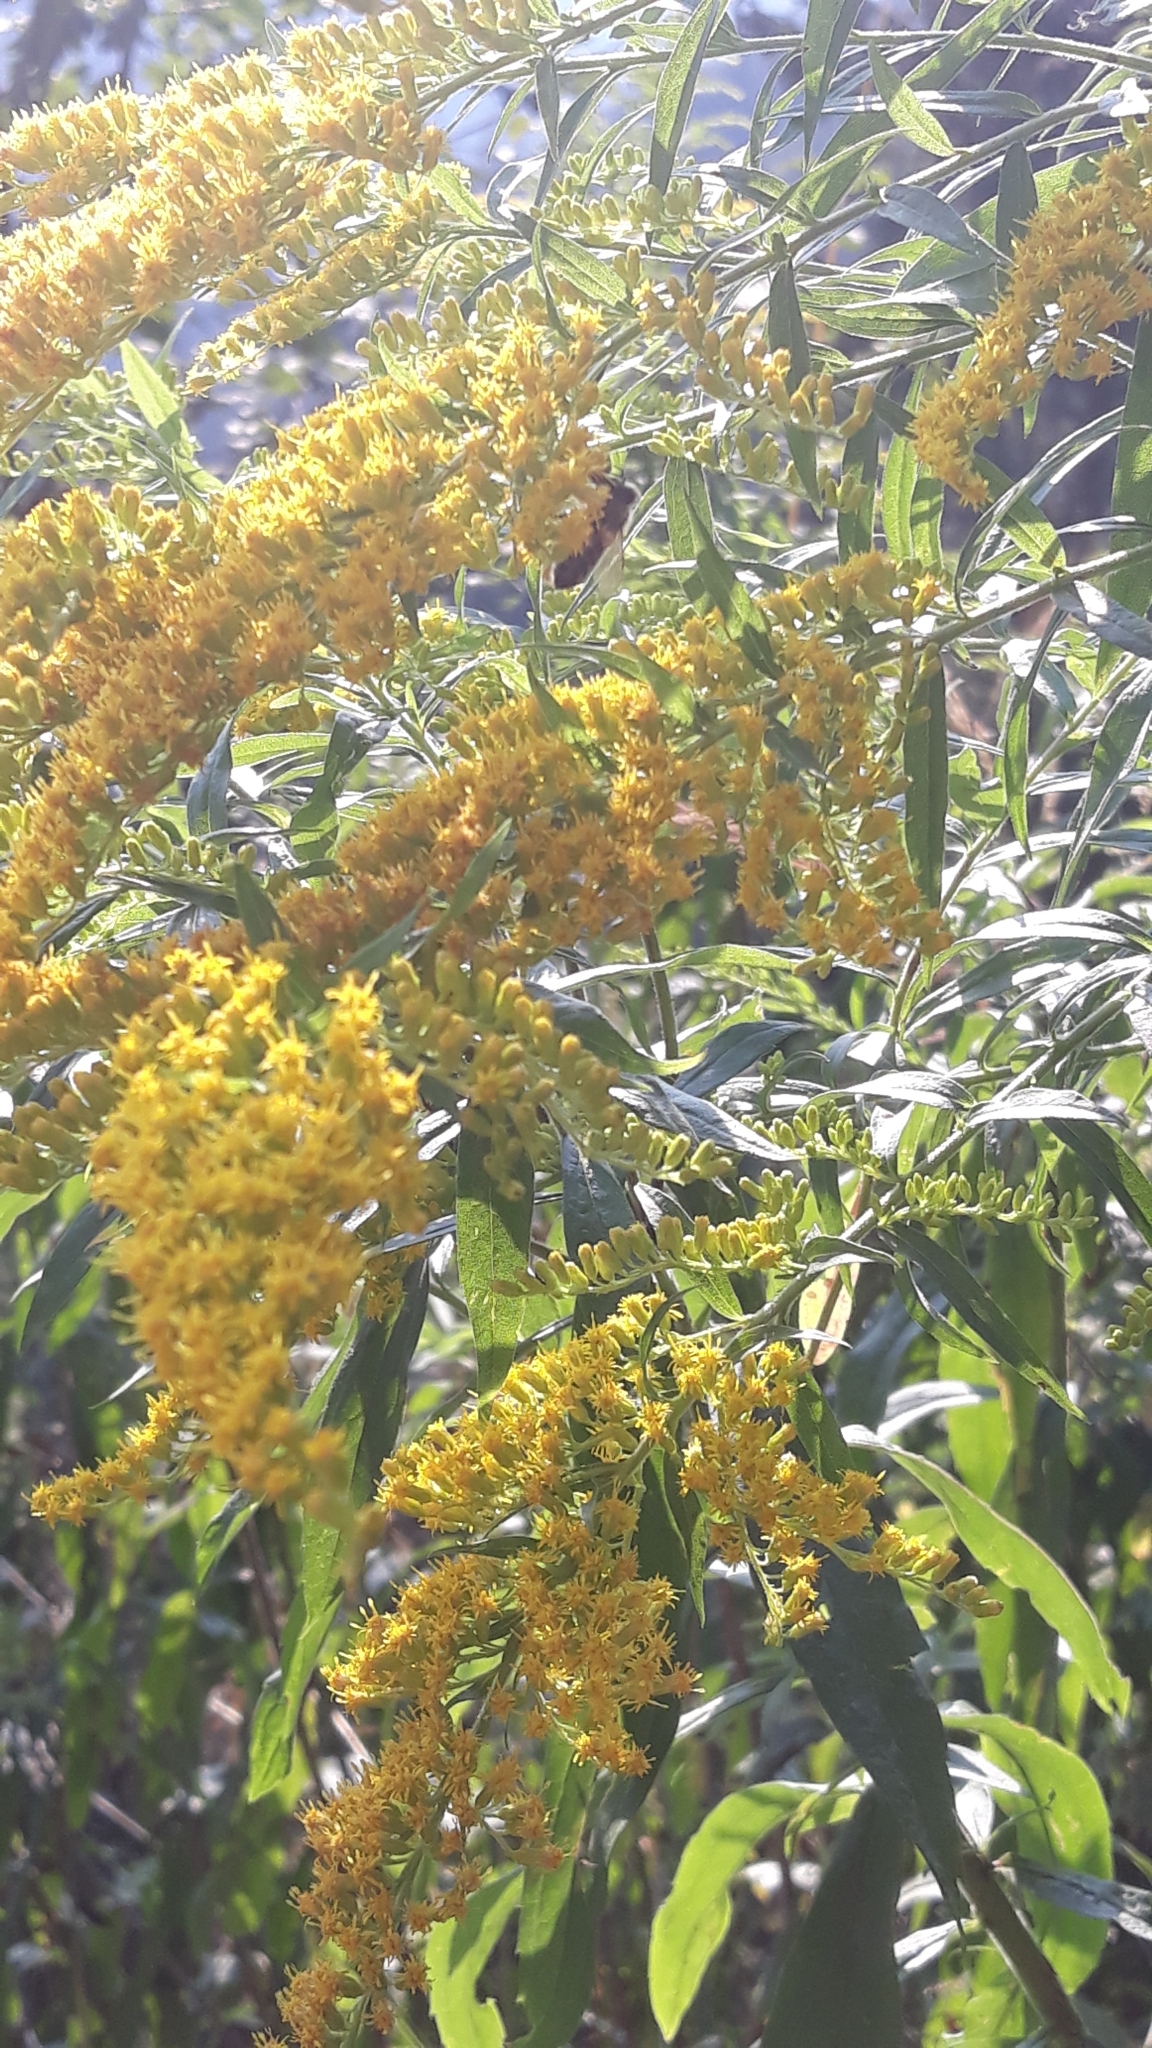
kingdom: Plantae
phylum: Tracheophyta
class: Magnoliopsida
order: Asterales
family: Asteraceae
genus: Solidago
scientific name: Solidago canadensis
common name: Canada goldenrod
